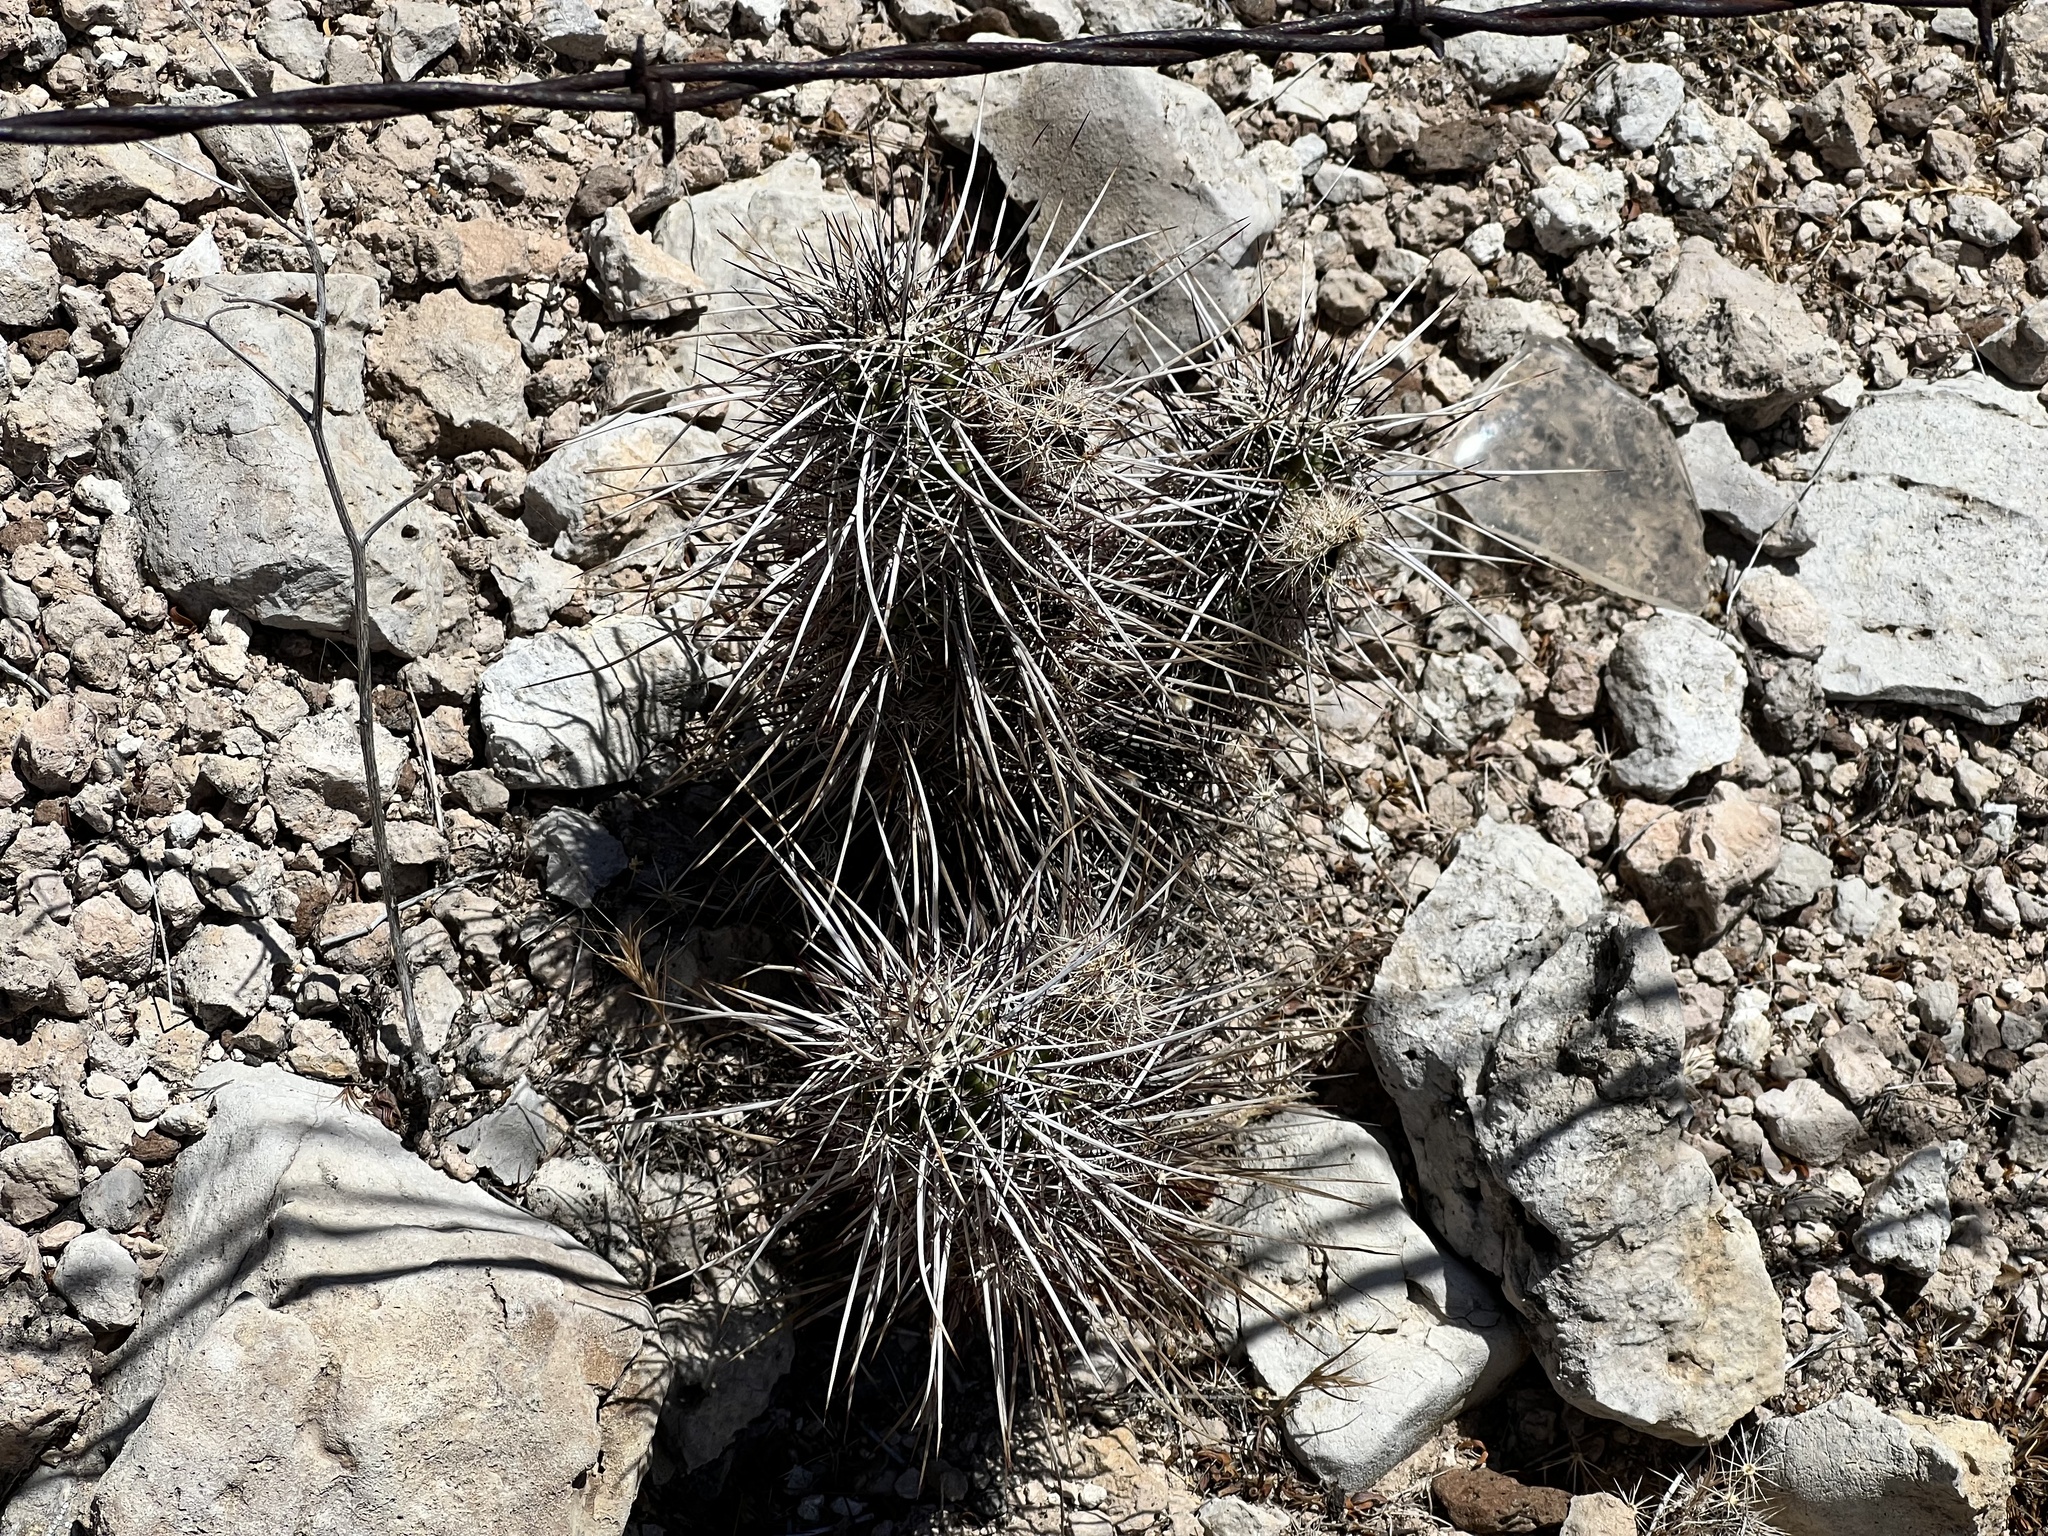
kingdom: Plantae
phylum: Tracheophyta
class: Magnoliopsida
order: Caryophyllales
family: Cactaceae
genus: Echinocereus
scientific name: Echinocereus fasciculatus
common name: Bundle hedgehog
